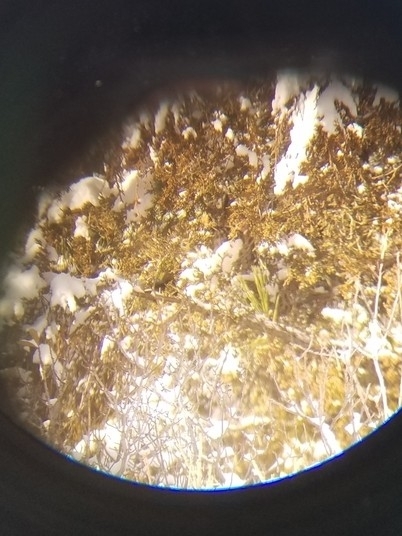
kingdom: Animalia
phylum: Chordata
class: Aves
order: Strigiformes
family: Strigidae
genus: Asio
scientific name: Asio otus
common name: Long-eared owl
